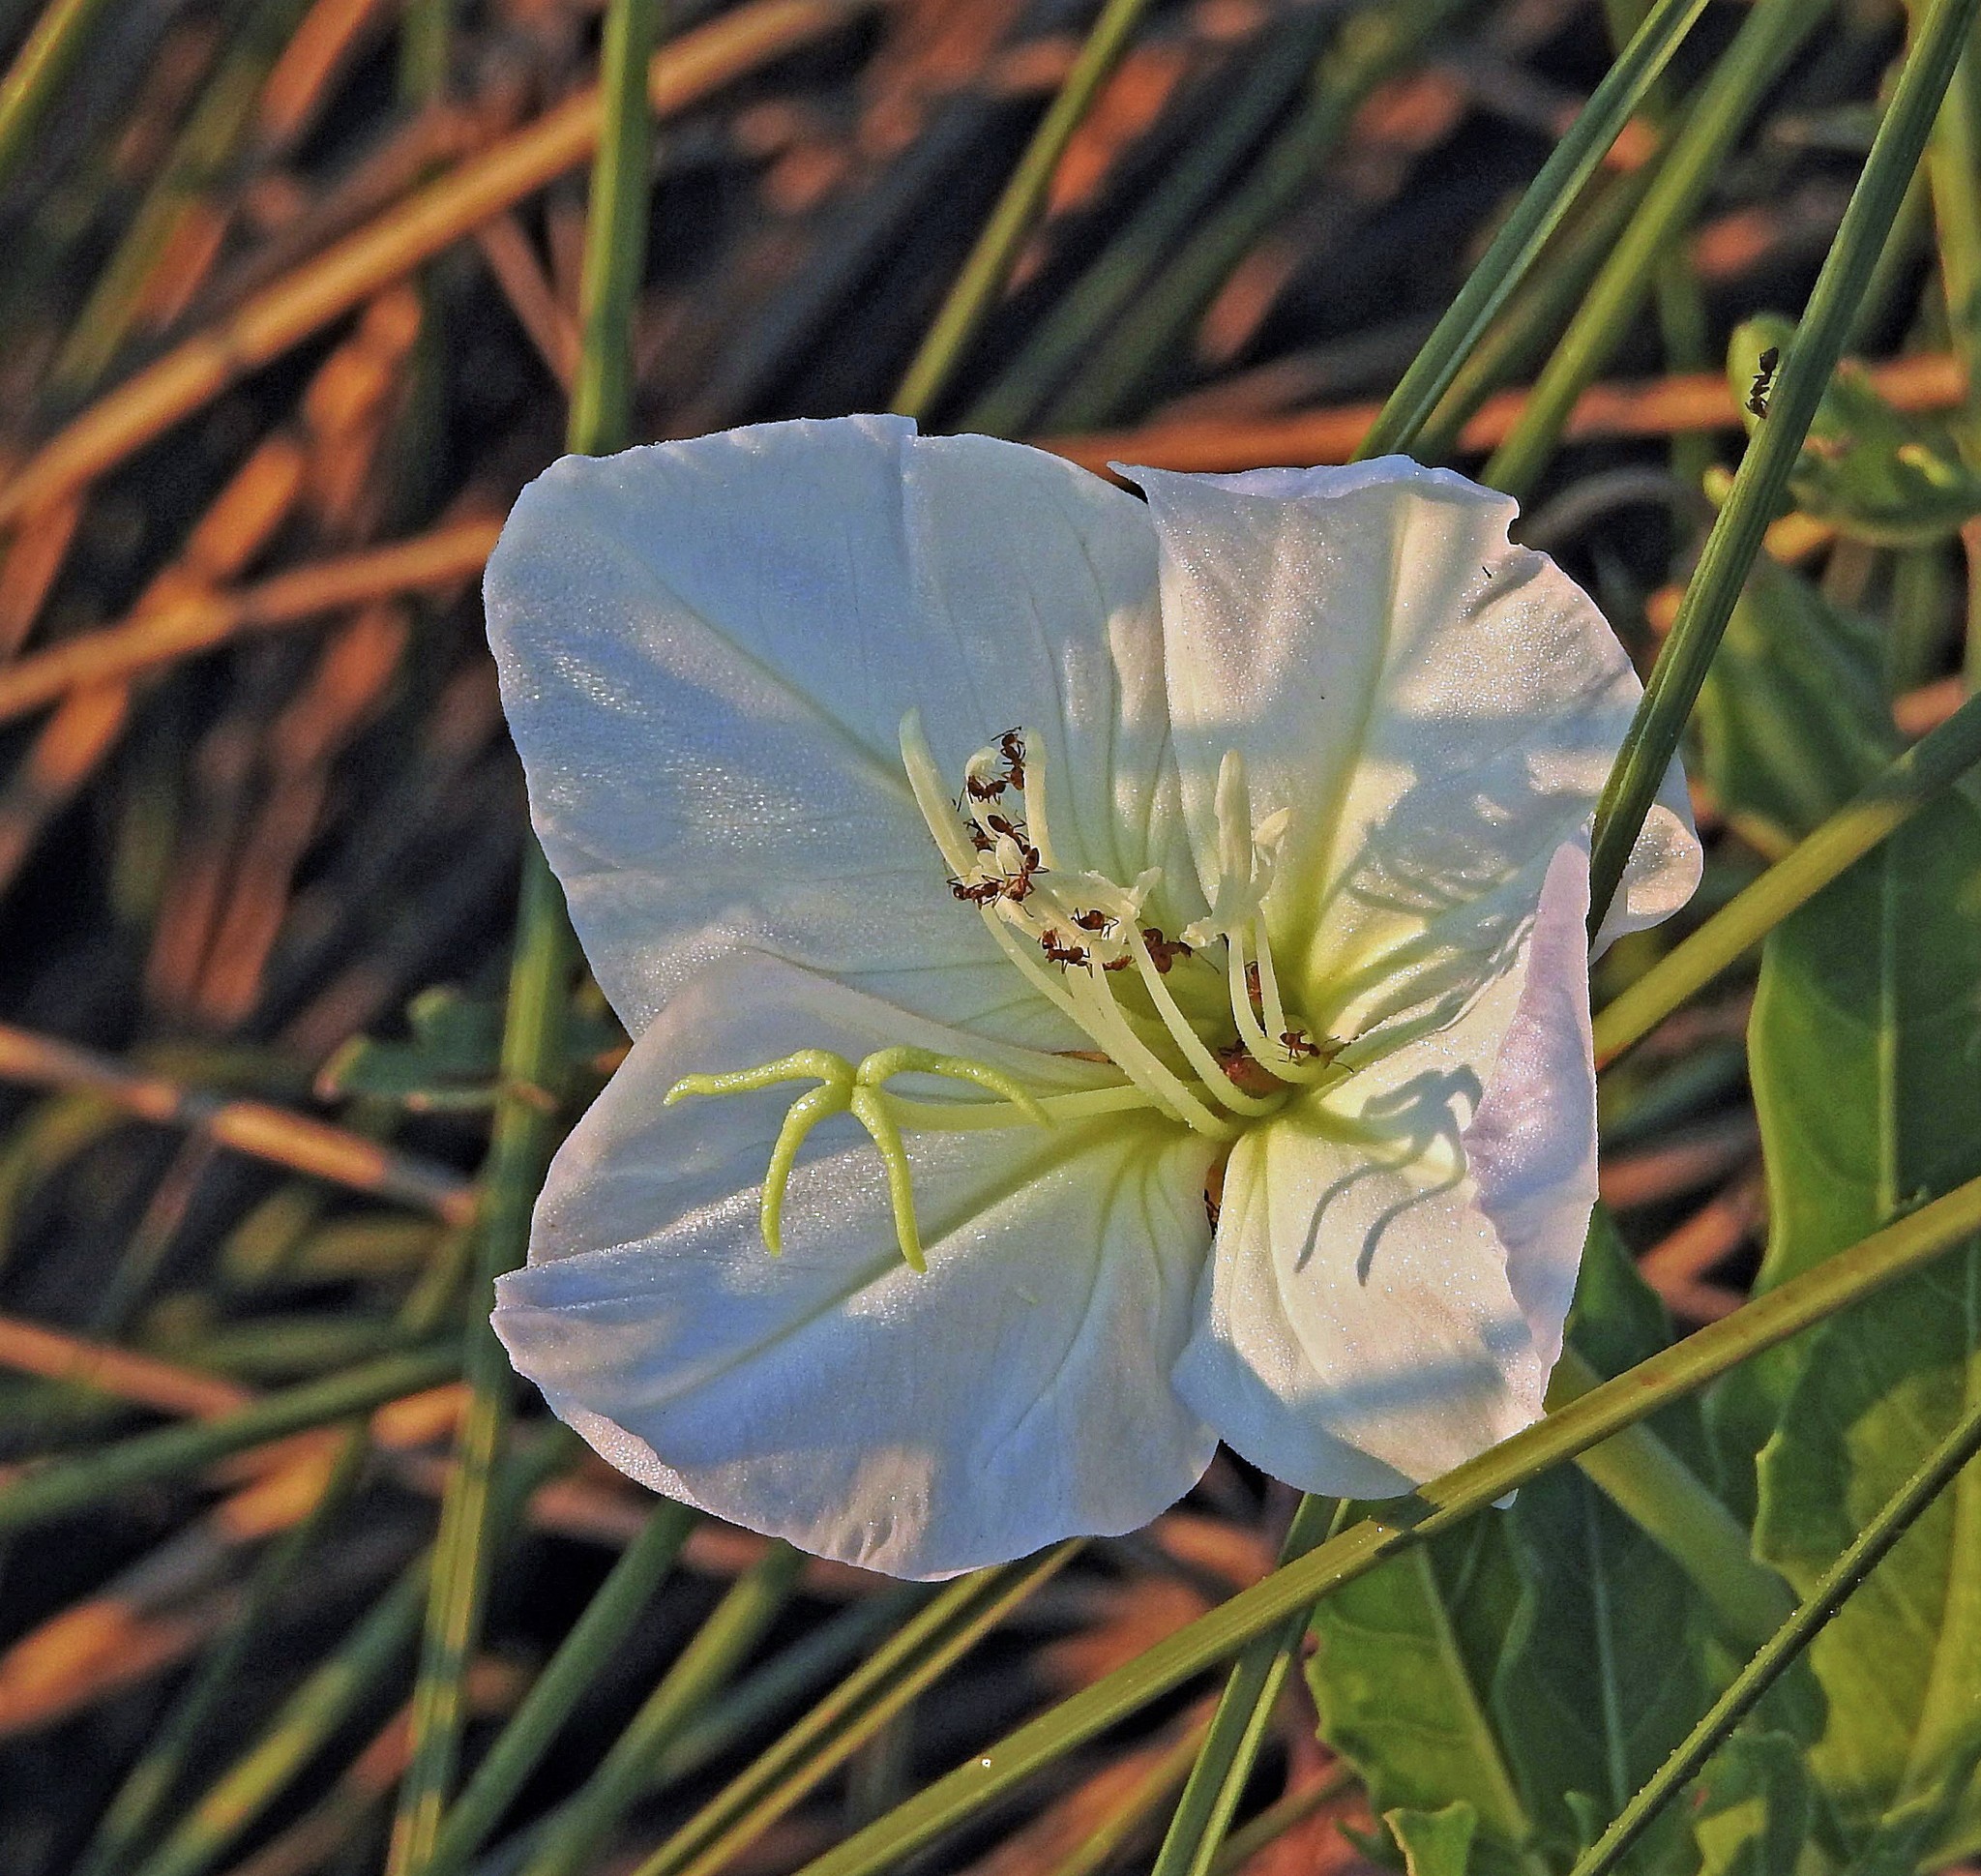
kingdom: Plantae
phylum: Tracheophyta
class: Magnoliopsida
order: Myrtales
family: Onagraceae
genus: Oenothera
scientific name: Oenothera centaurifolia
